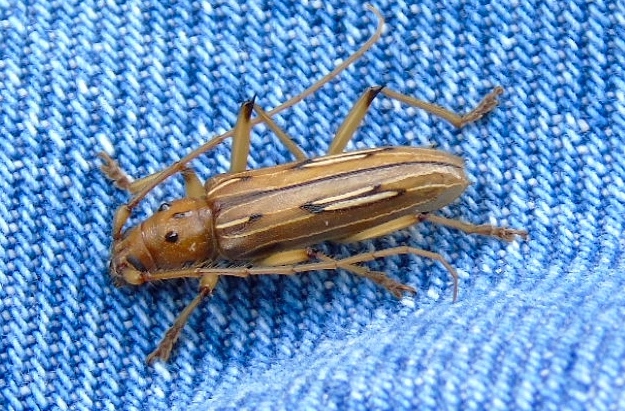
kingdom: Animalia
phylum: Arthropoda
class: Insecta
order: Coleoptera
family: Cerambycidae
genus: Eburodacrys
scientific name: Eburodacrys nemorivaga
